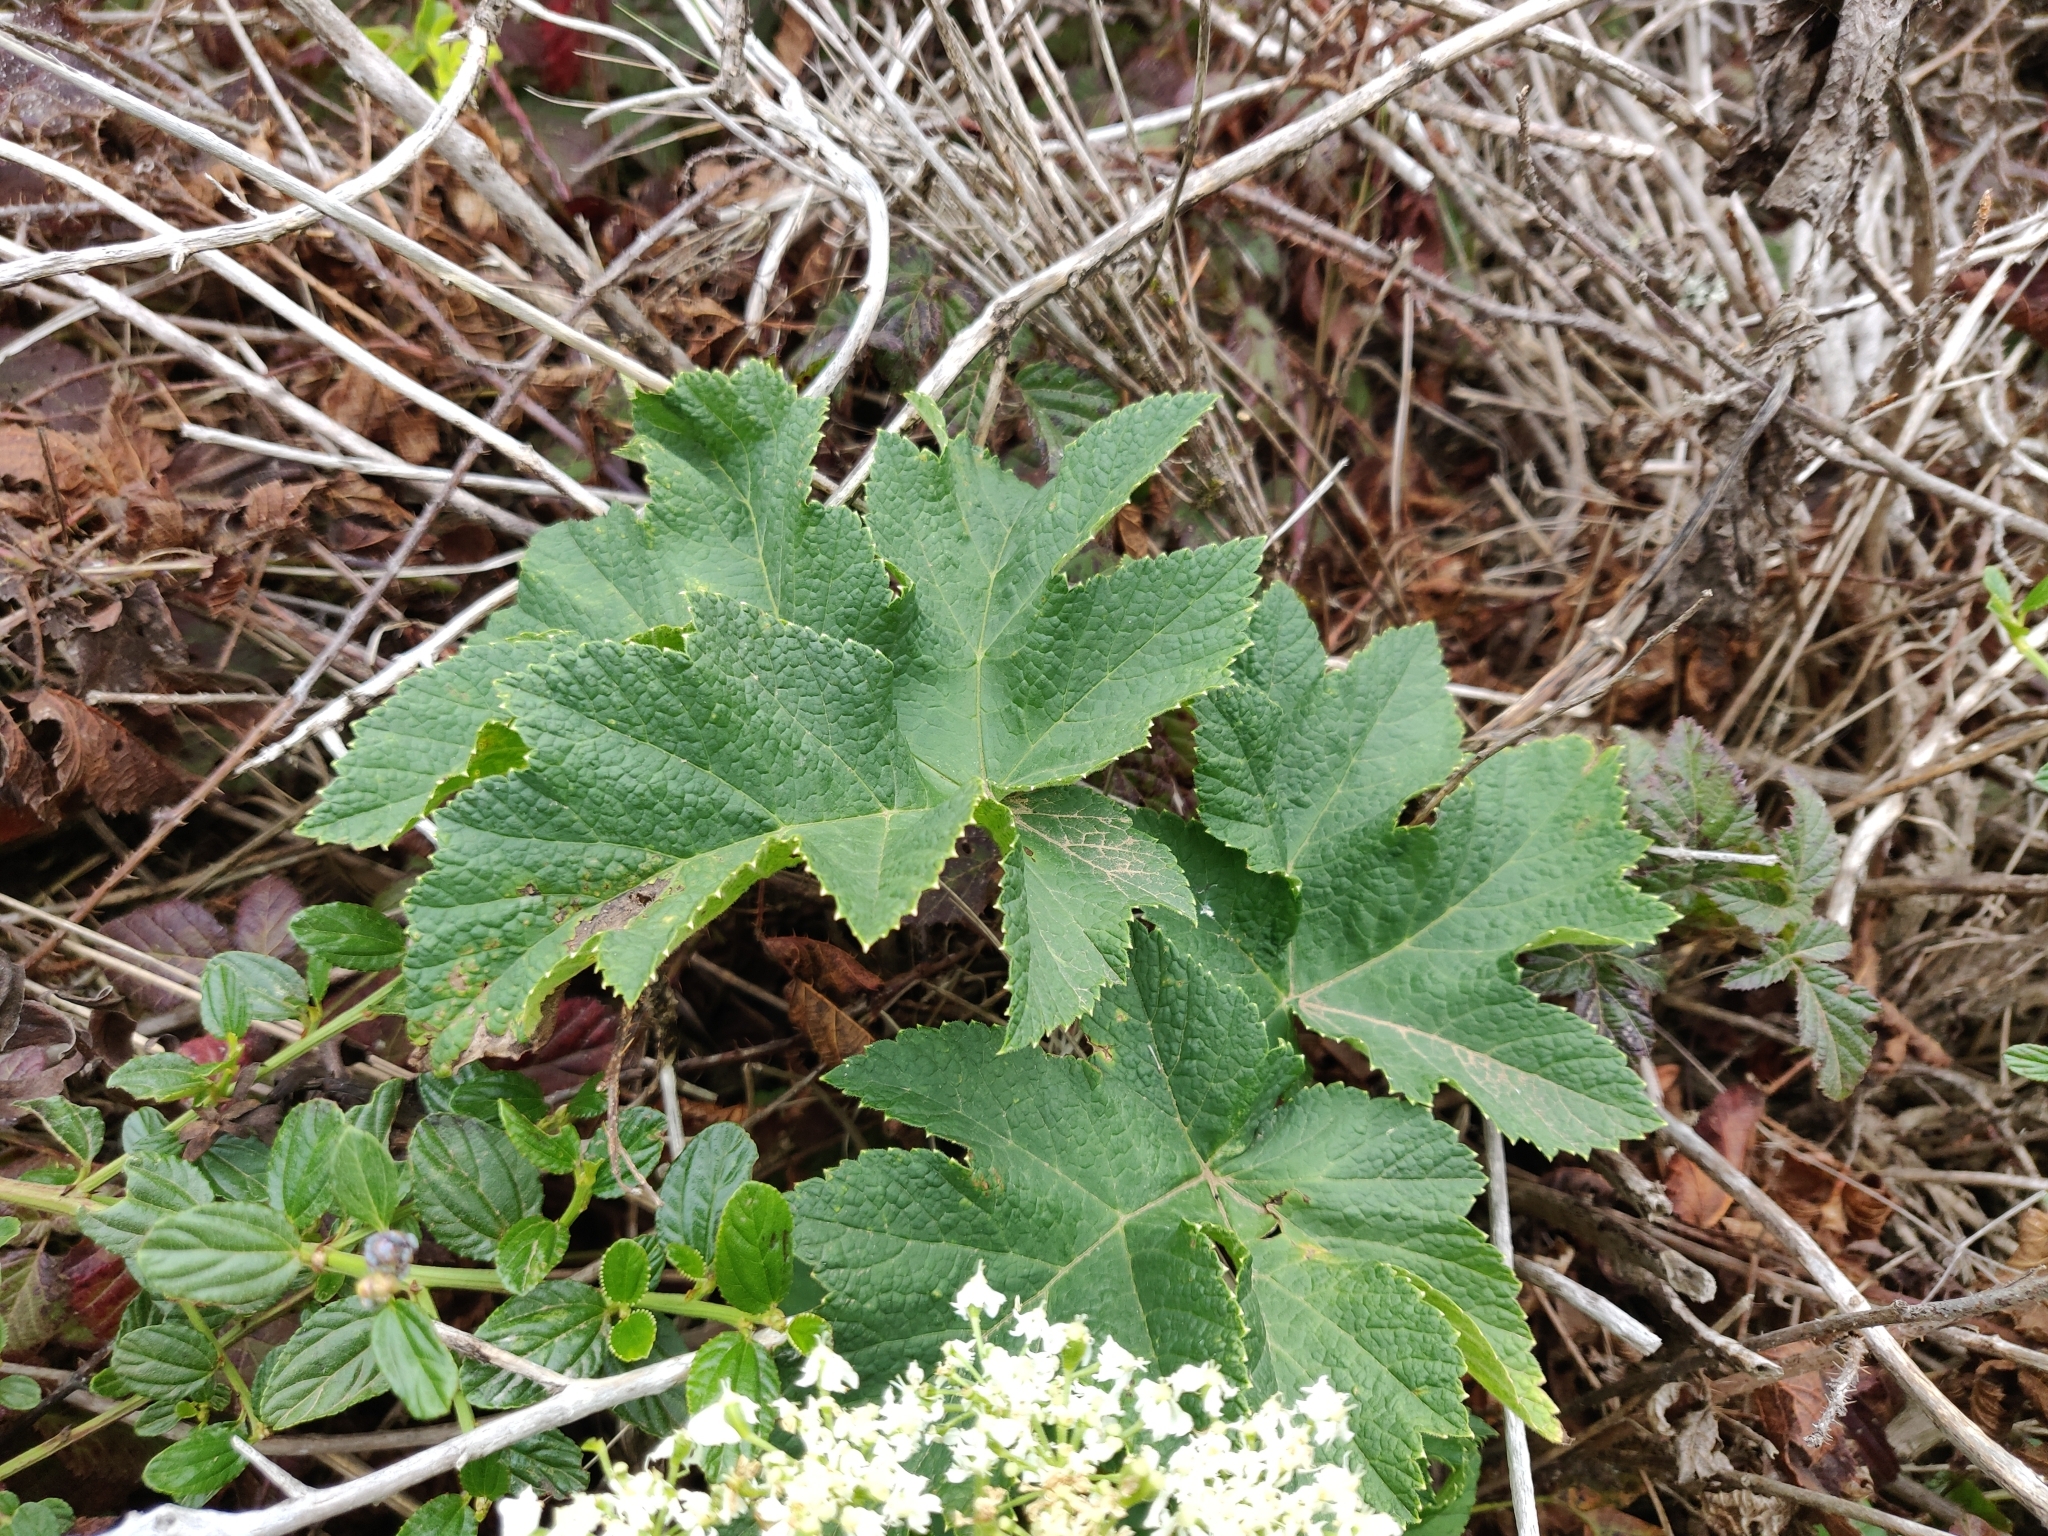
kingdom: Plantae
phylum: Tracheophyta
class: Magnoliopsida
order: Apiales
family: Apiaceae
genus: Heracleum
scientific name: Heracleum maximum
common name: American cow parsnip
